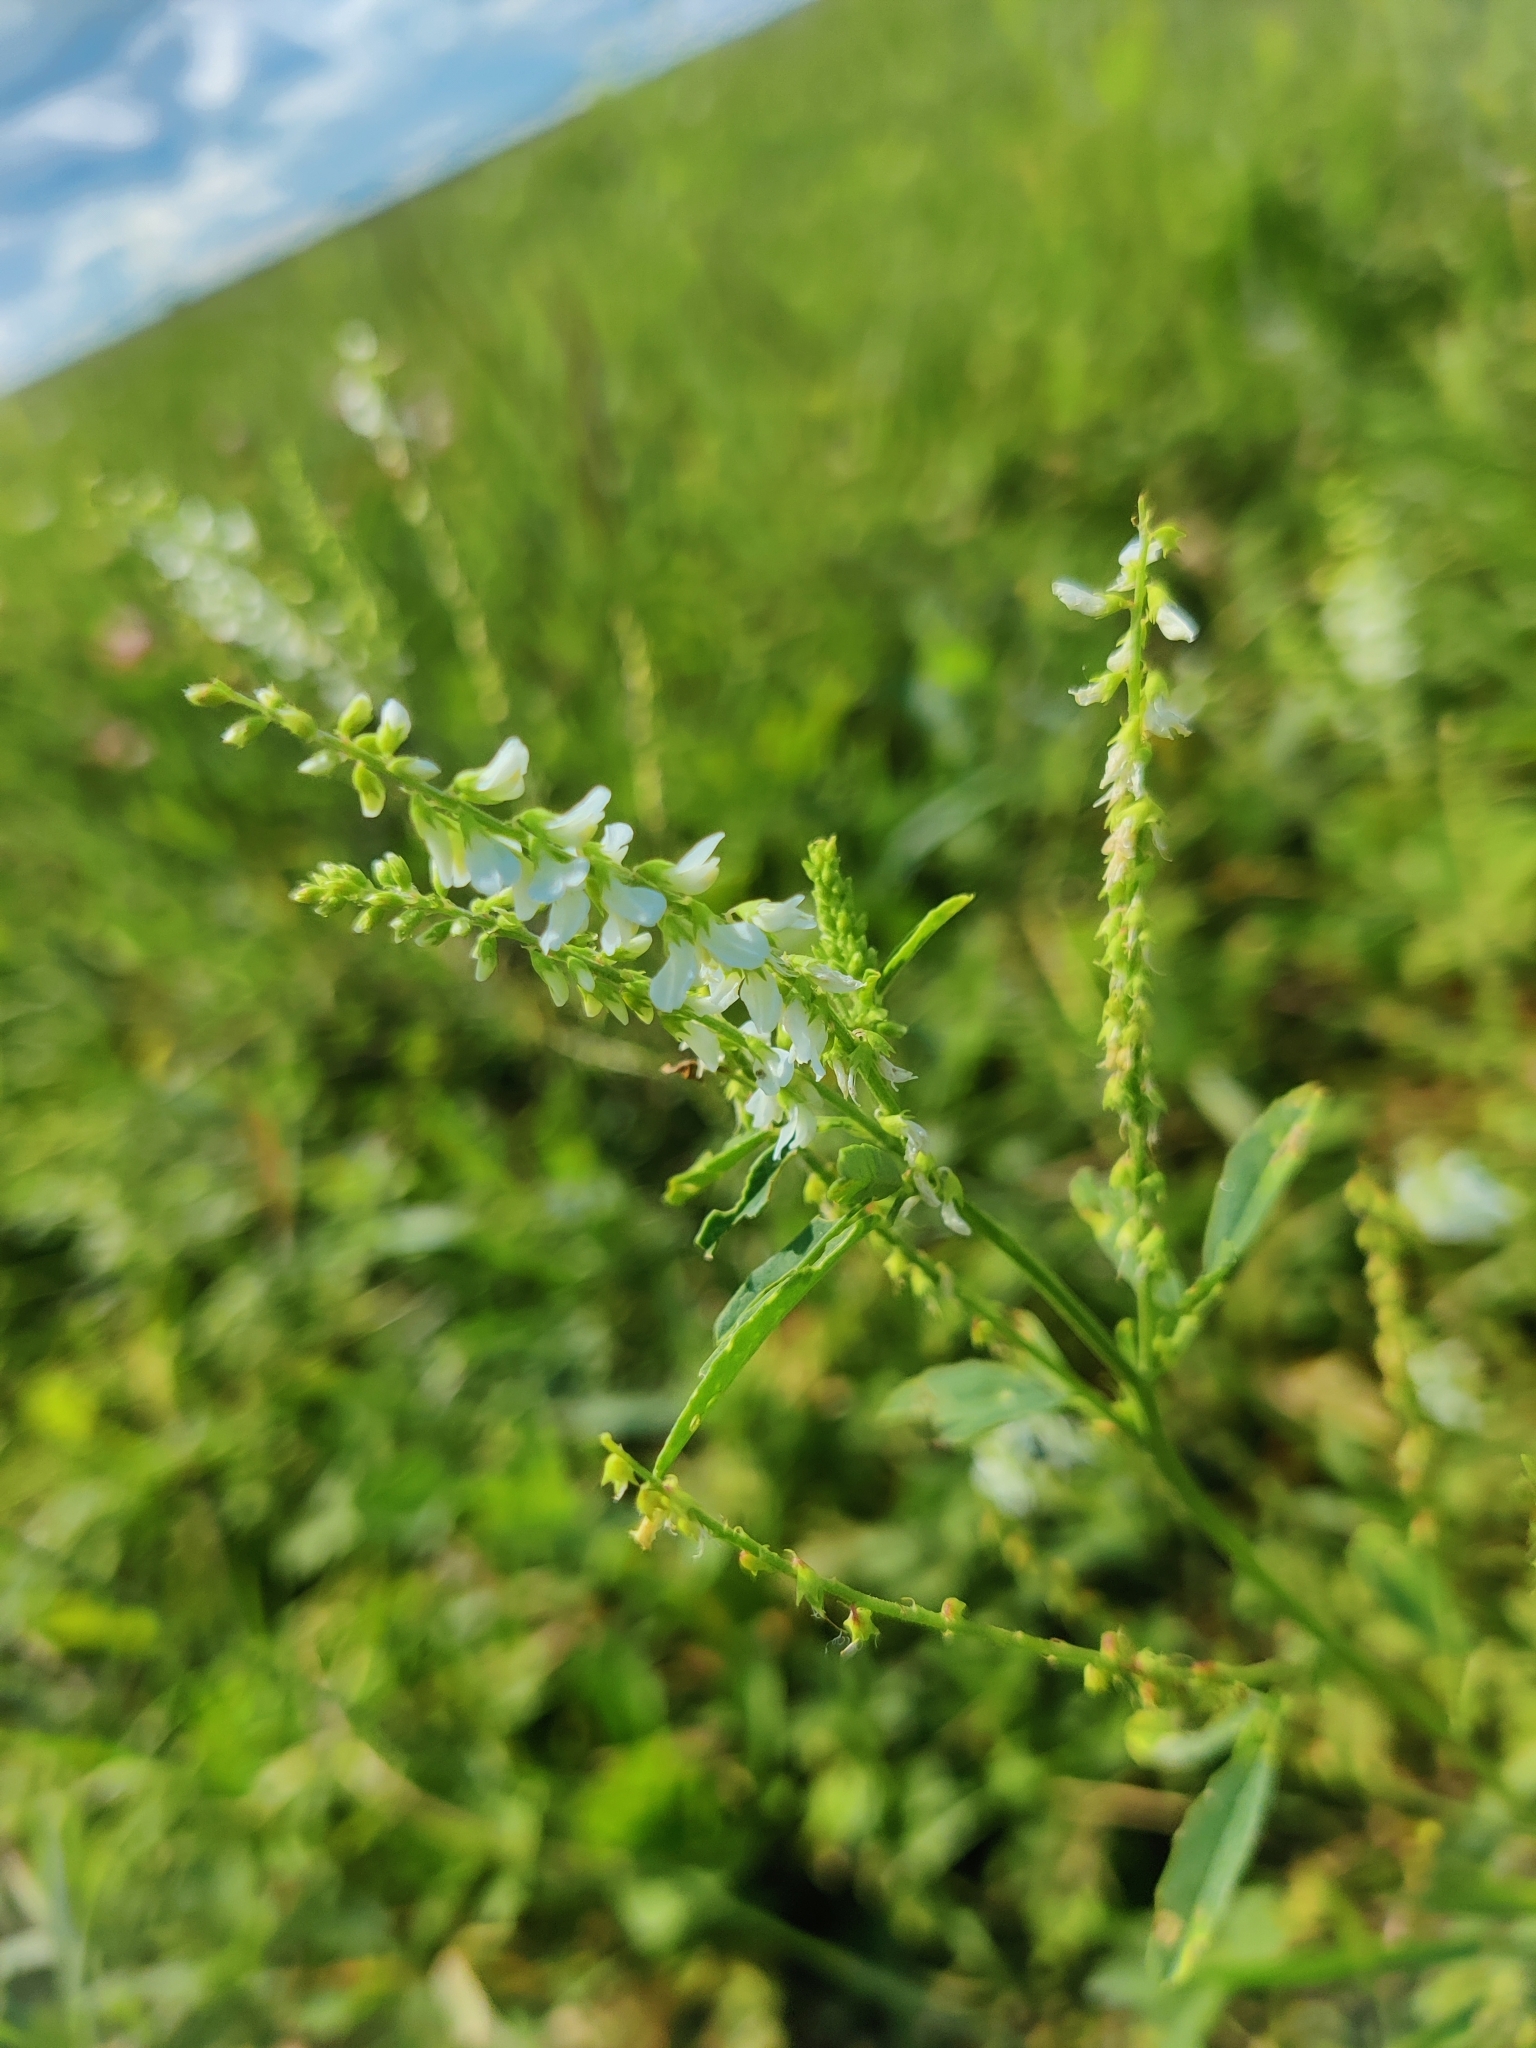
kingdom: Plantae
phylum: Tracheophyta
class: Magnoliopsida
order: Fabales
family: Fabaceae
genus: Melilotus
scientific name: Melilotus albus
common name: White melilot
